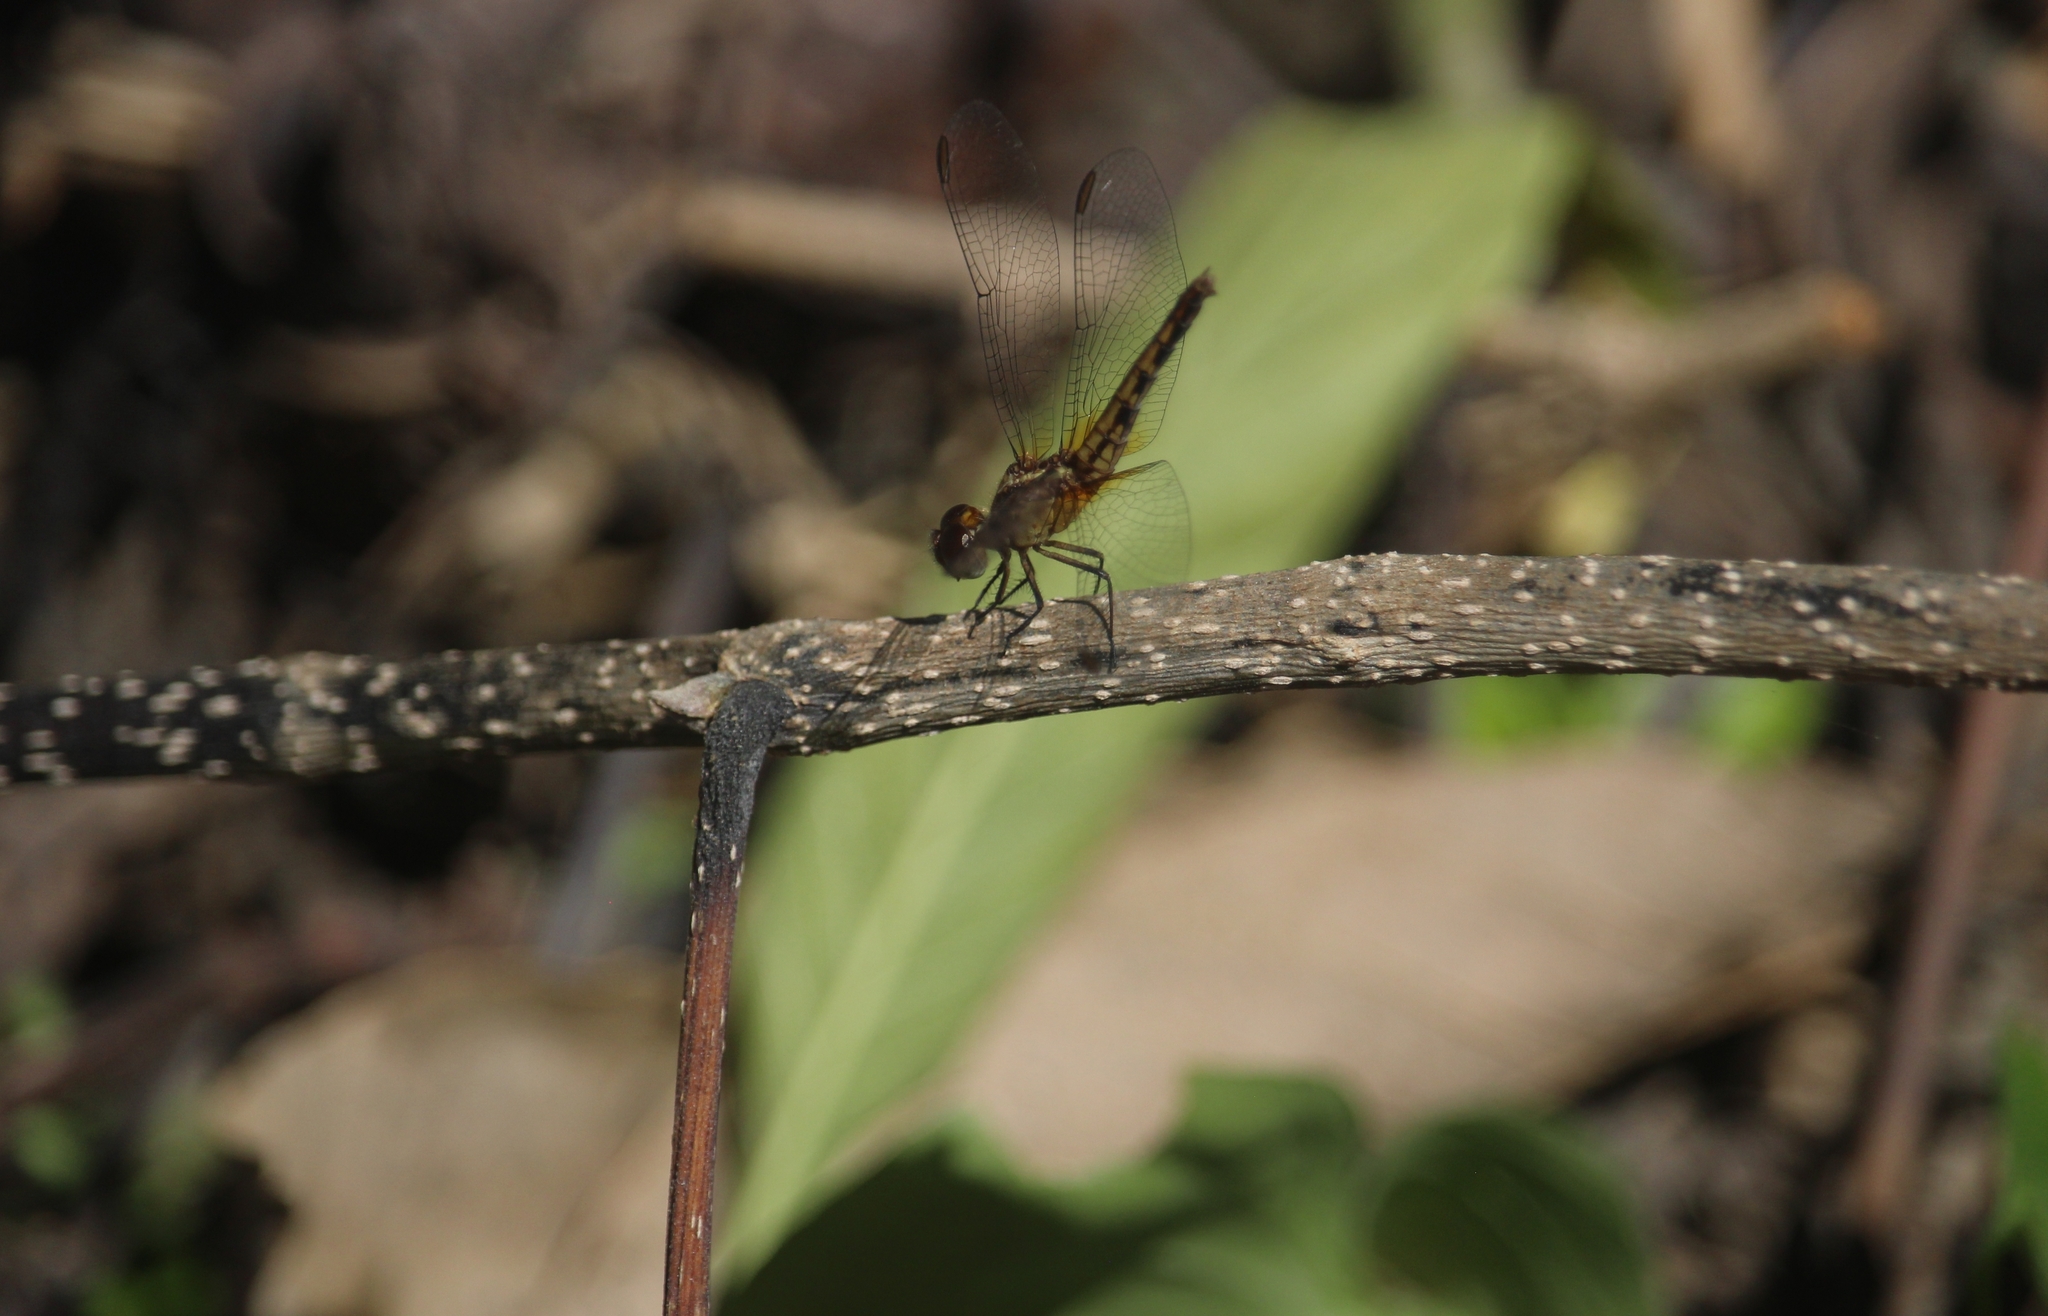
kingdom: Animalia
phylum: Arthropoda
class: Insecta
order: Odonata
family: Libellulidae
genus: Erythrodiplax
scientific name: Erythrodiplax fusca
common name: Red-faced dragonlet
